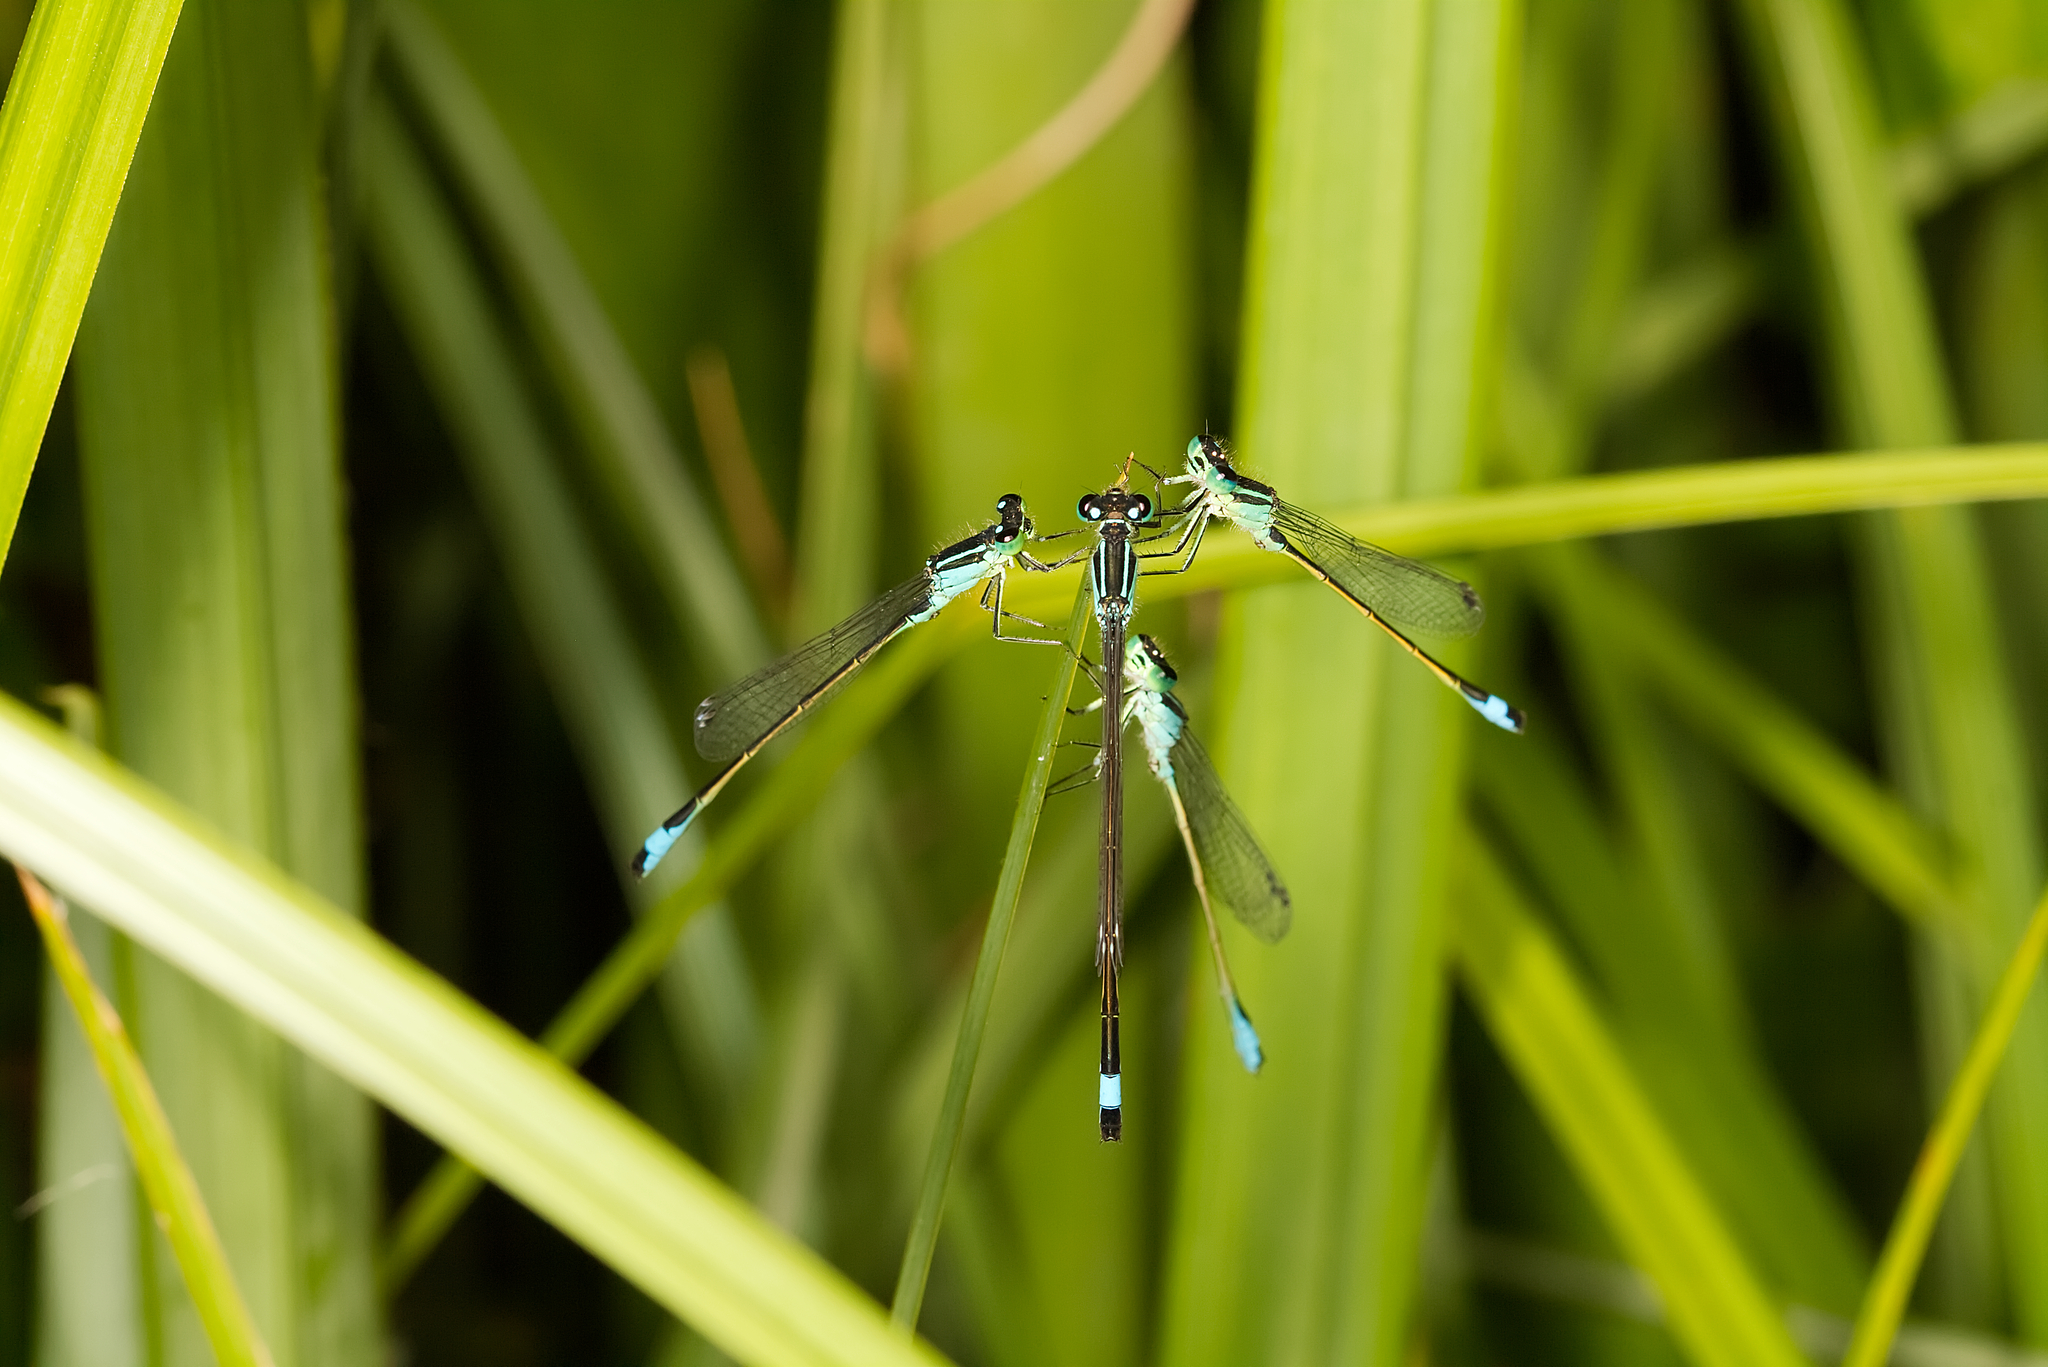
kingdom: Animalia
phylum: Arthropoda
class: Insecta
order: Odonata
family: Coenagrionidae
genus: Ischnura
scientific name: Ischnura elegans
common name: Blue-tailed damselfly
